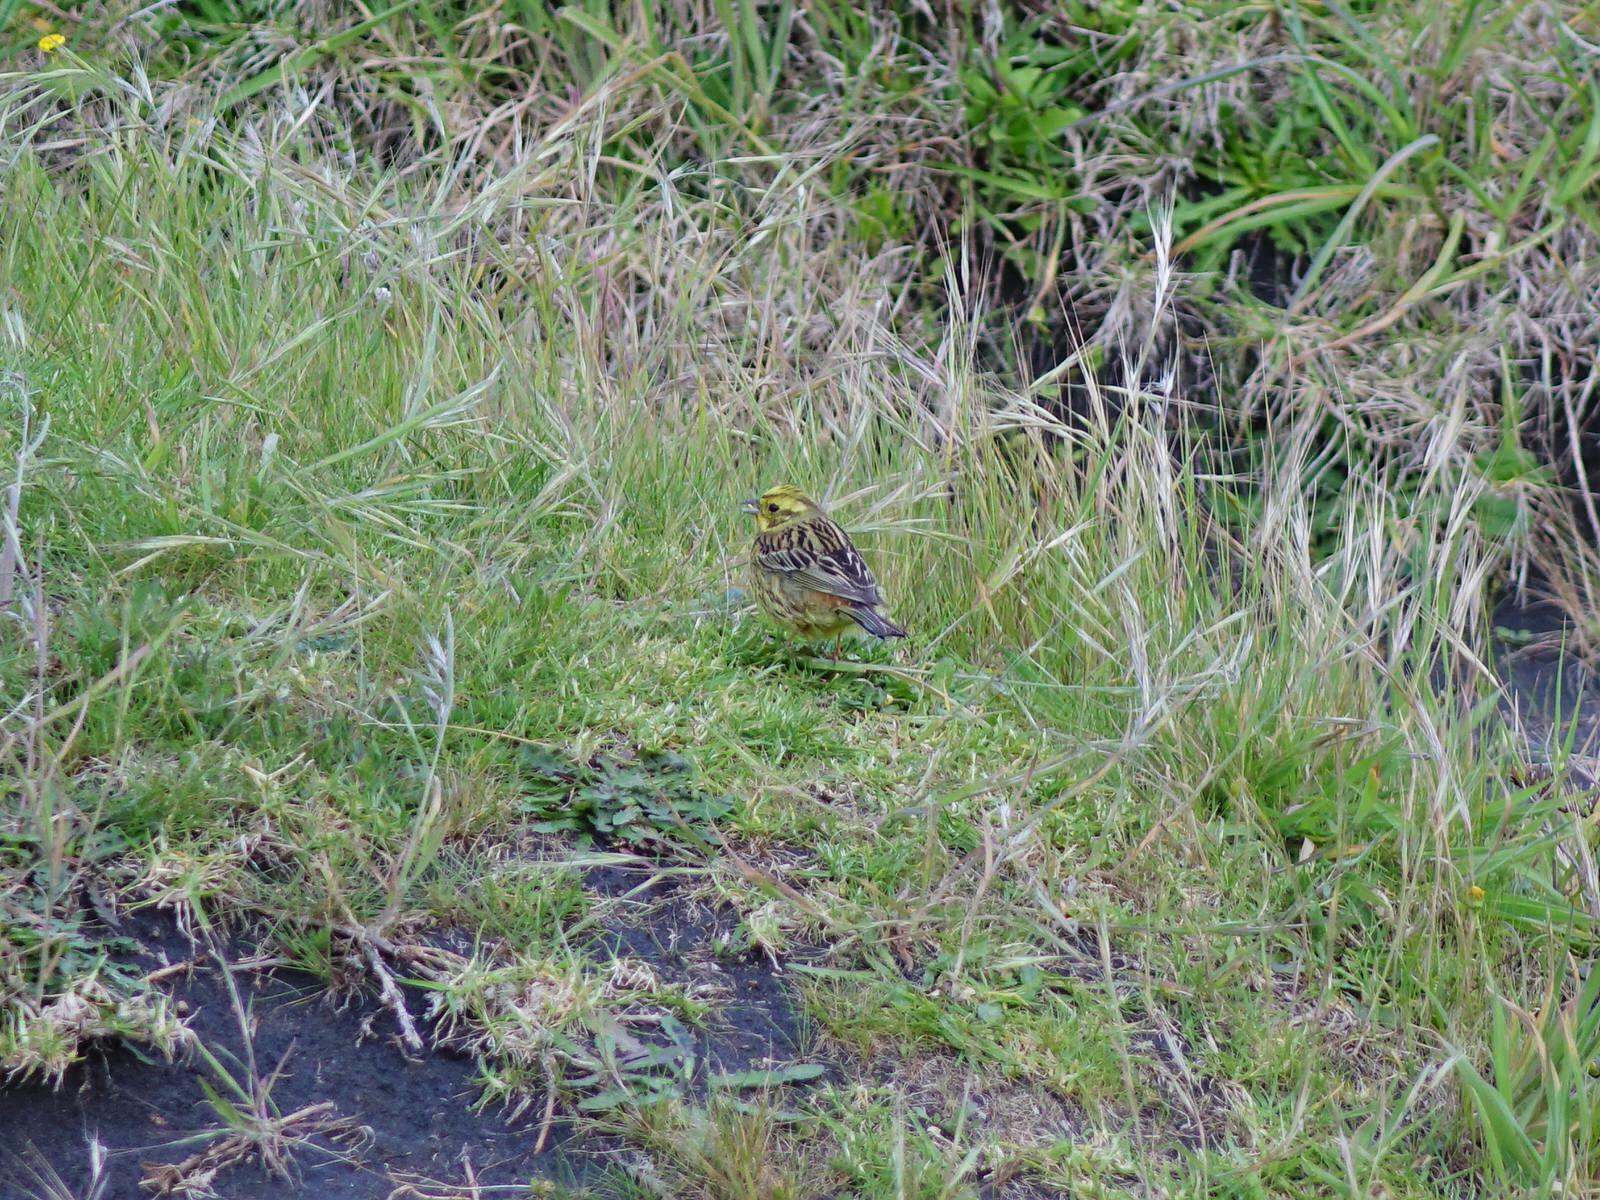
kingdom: Animalia
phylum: Chordata
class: Aves
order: Passeriformes
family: Emberizidae
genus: Emberiza
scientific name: Emberiza citrinella
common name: Yellowhammer
